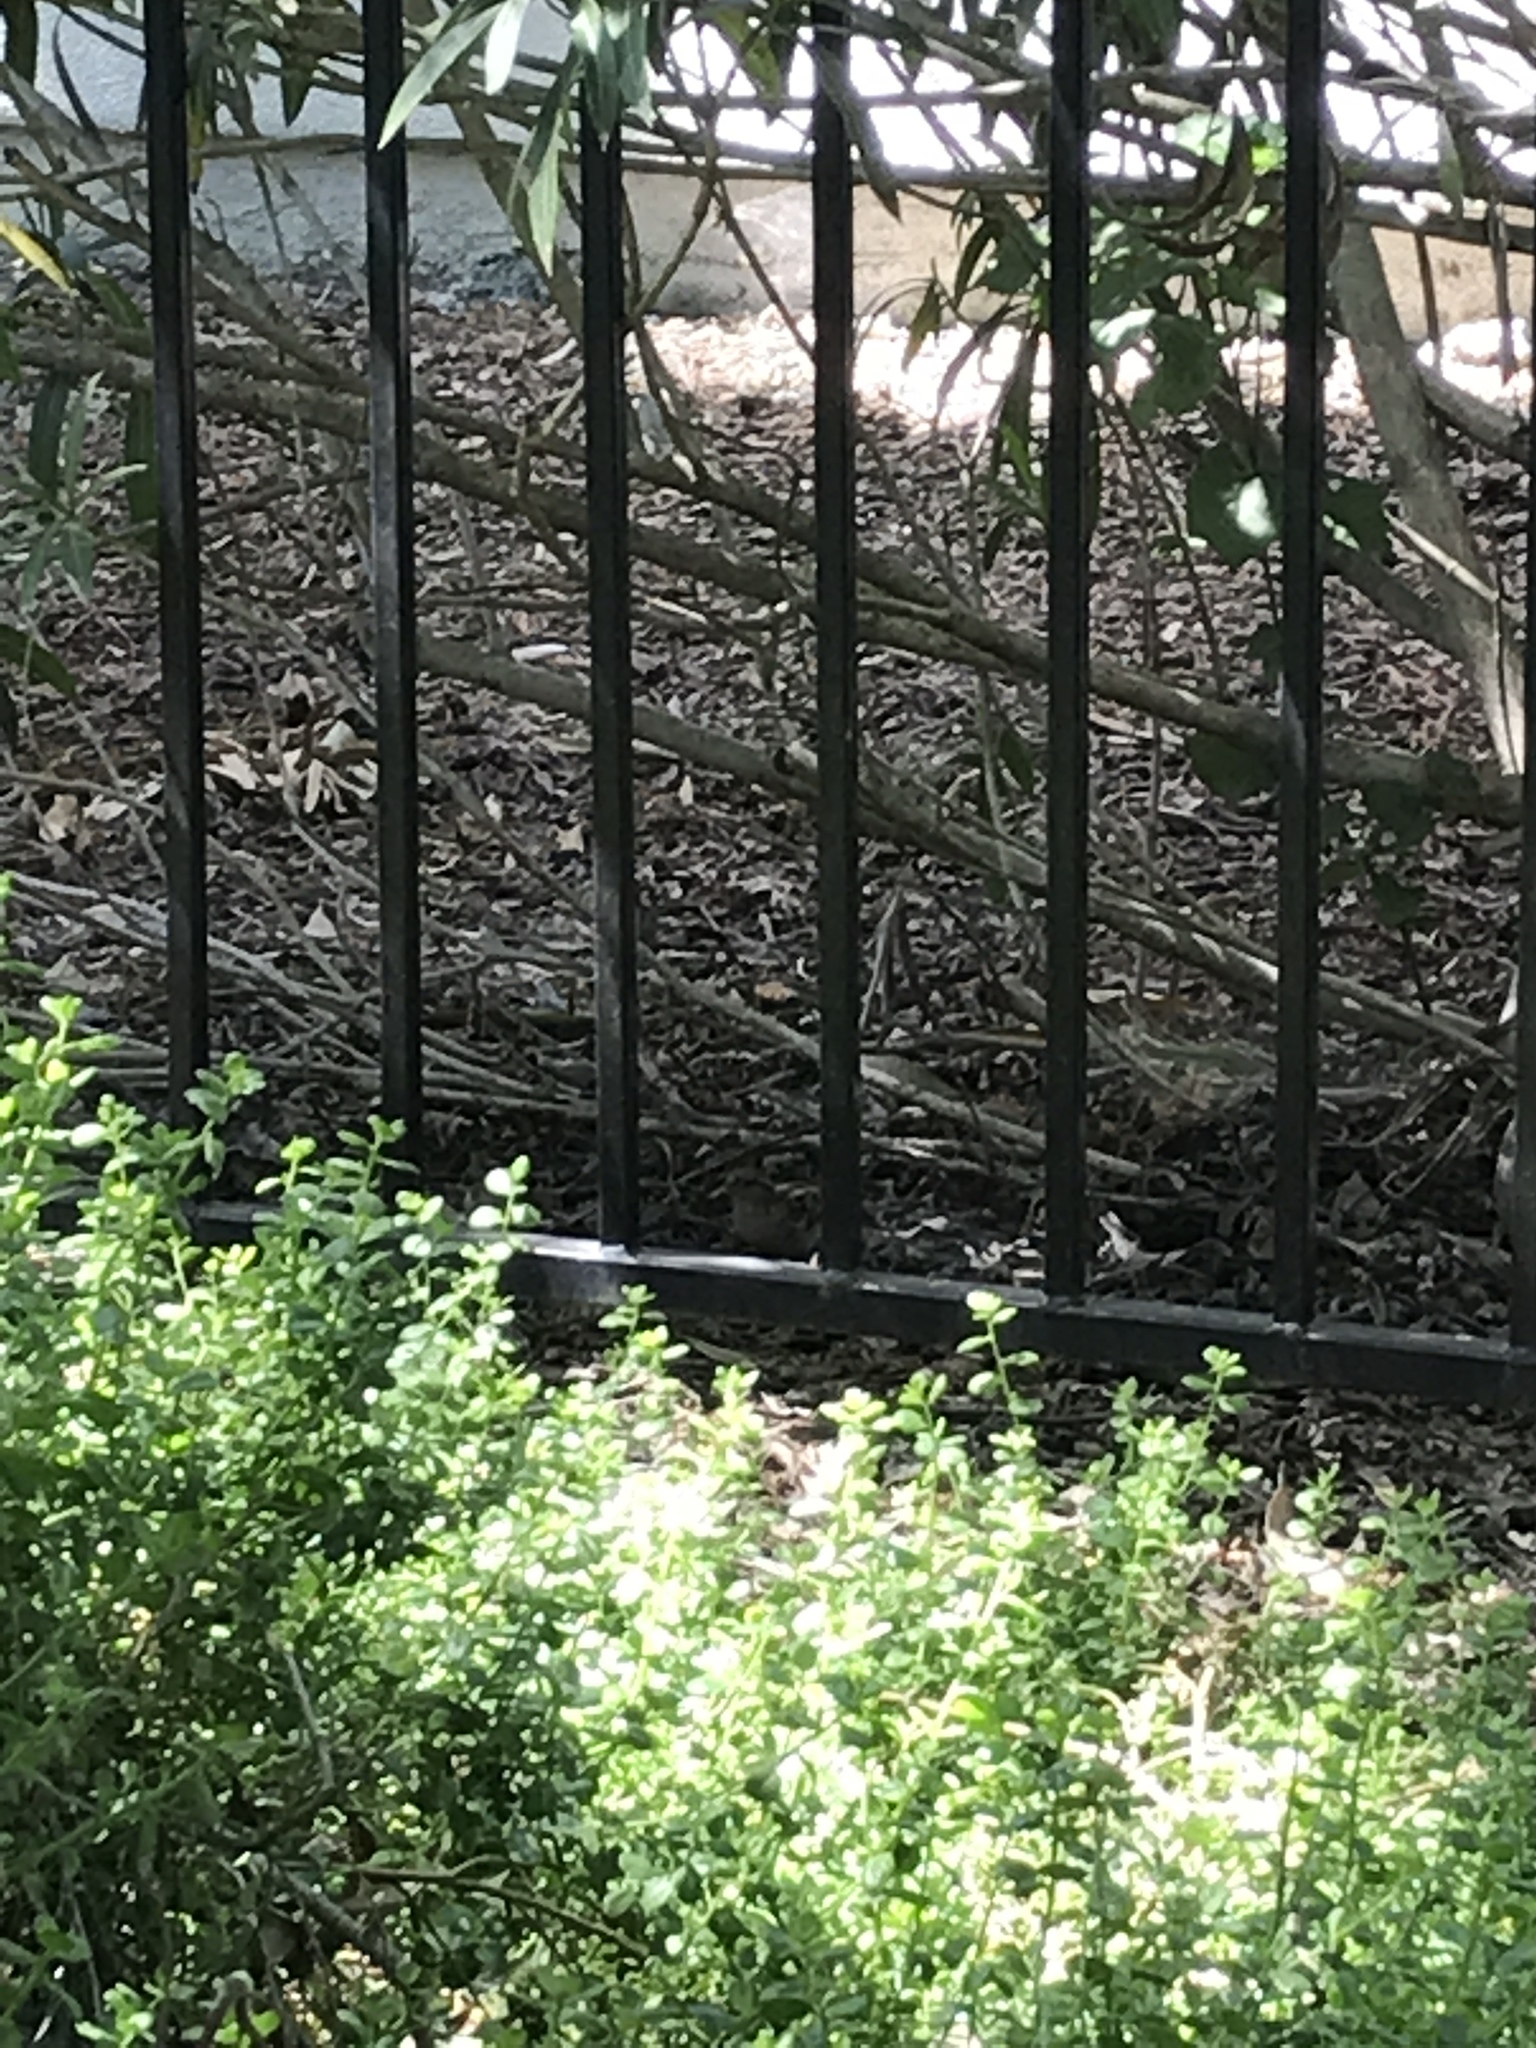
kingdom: Animalia
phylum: Chordata
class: Aves
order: Passeriformes
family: Passeridae
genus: Passer
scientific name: Passer domesticus
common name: House sparrow
